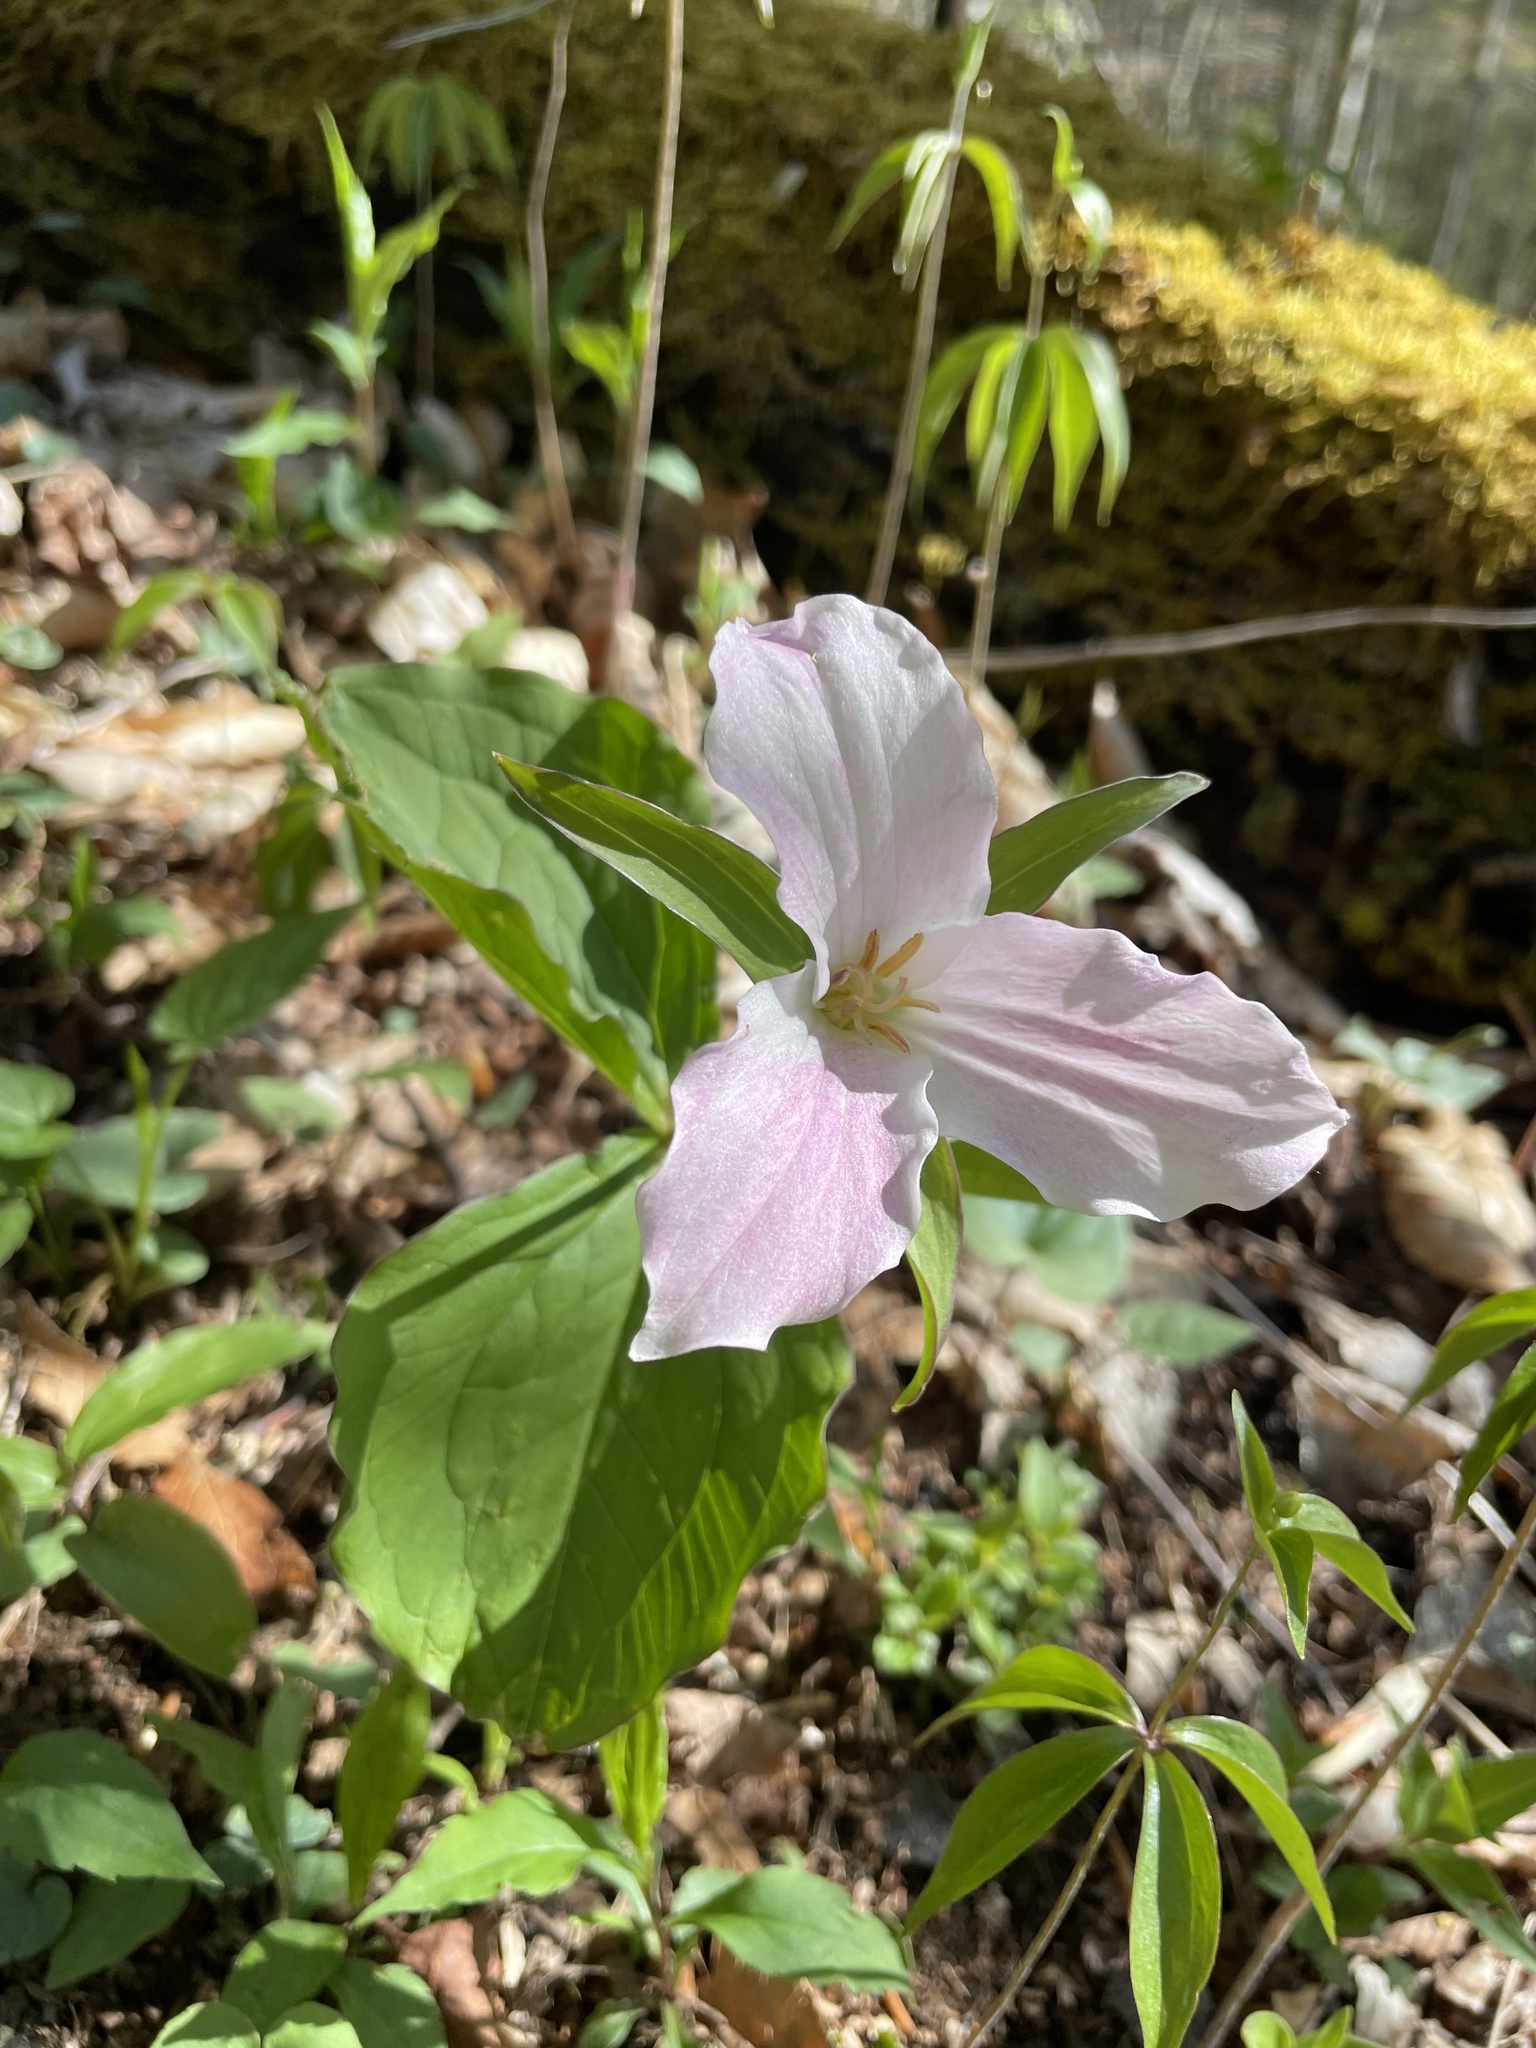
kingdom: Plantae
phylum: Tracheophyta
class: Liliopsida
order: Liliales
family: Melanthiaceae
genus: Trillium
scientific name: Trillium grandiflorum
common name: Great white trillium
